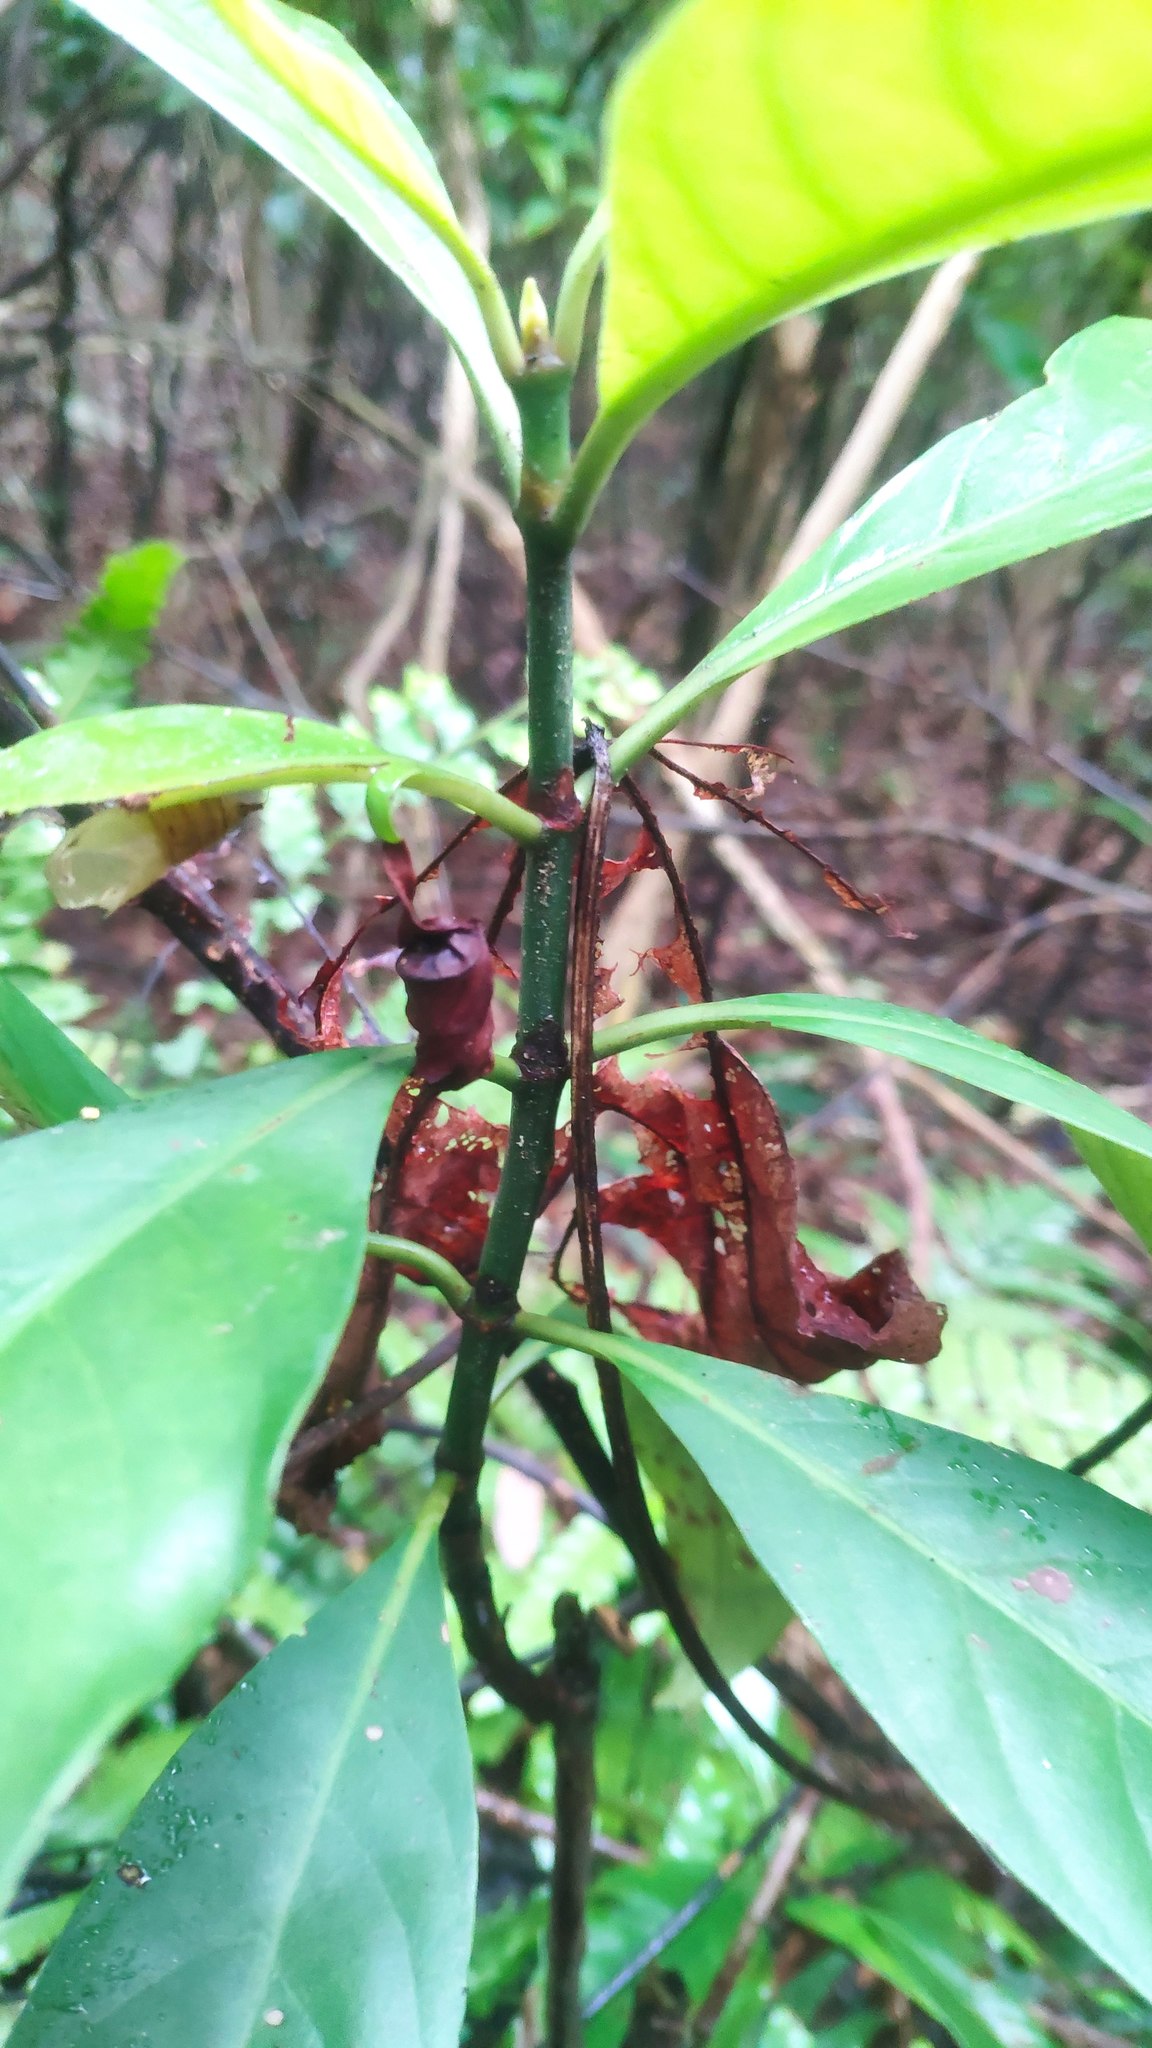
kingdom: Plantae
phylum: Tracheophyta
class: Magnoliopsida
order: Gentianales
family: Rubiaceae
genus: Psychotria
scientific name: Psychotria asiatica
